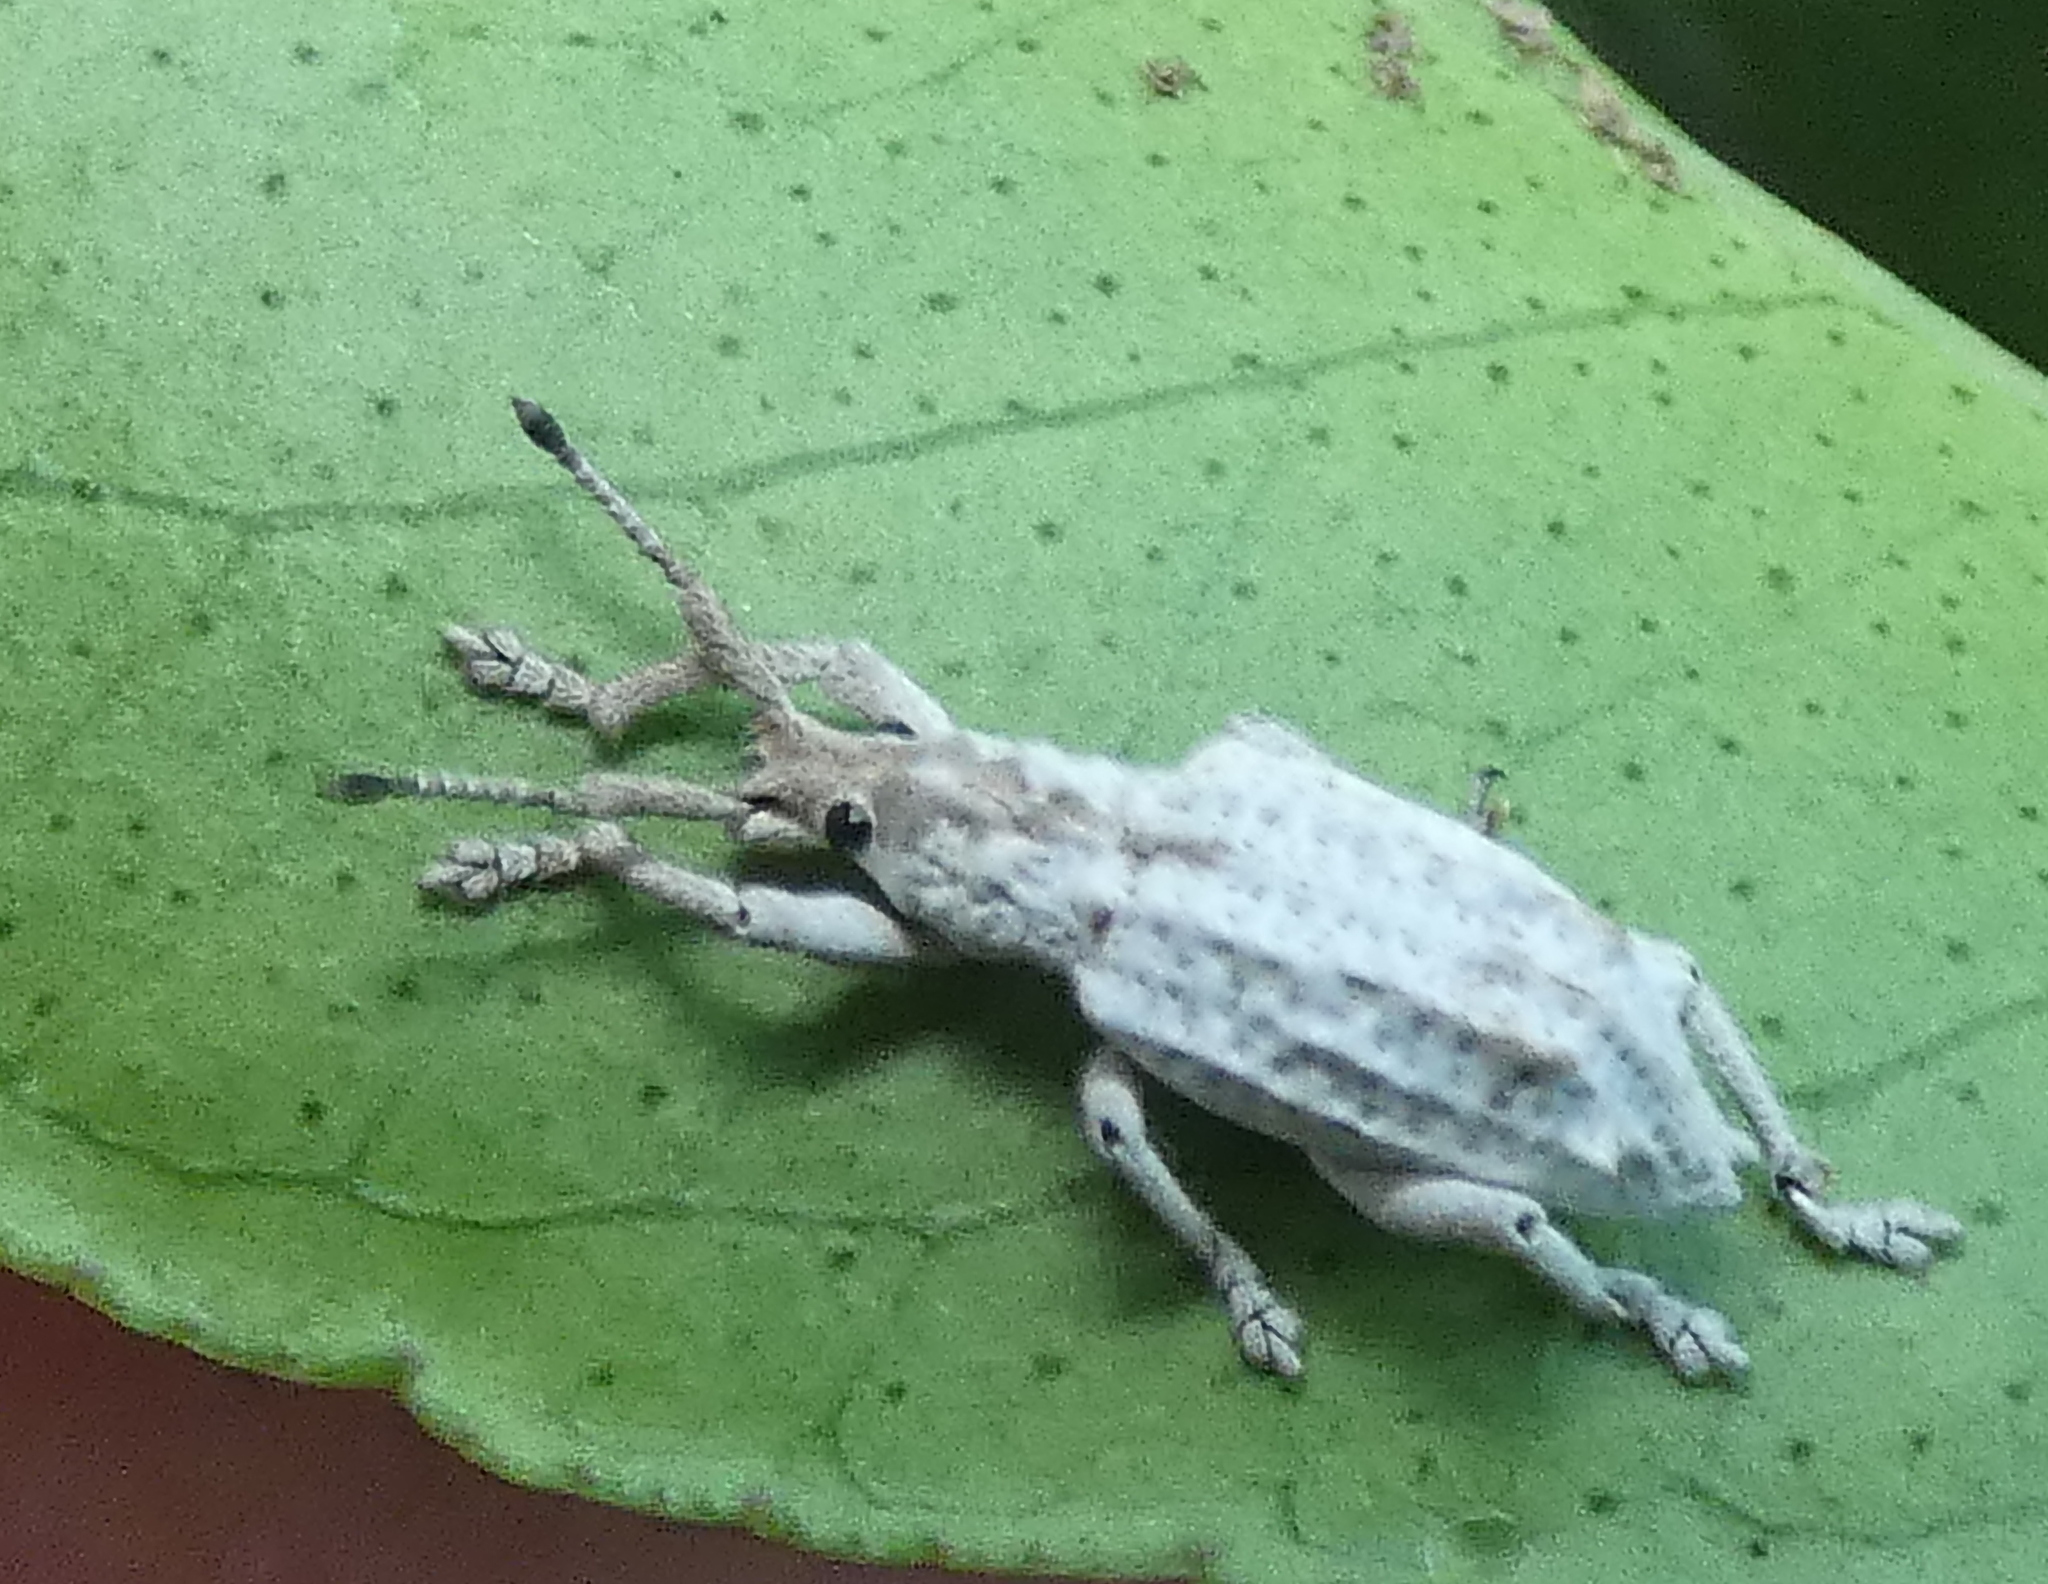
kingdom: Animalia
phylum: Arthropoda
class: Insecta
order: Coleoptera
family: Curculionidae
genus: Compsus
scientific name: Compsus niveus
